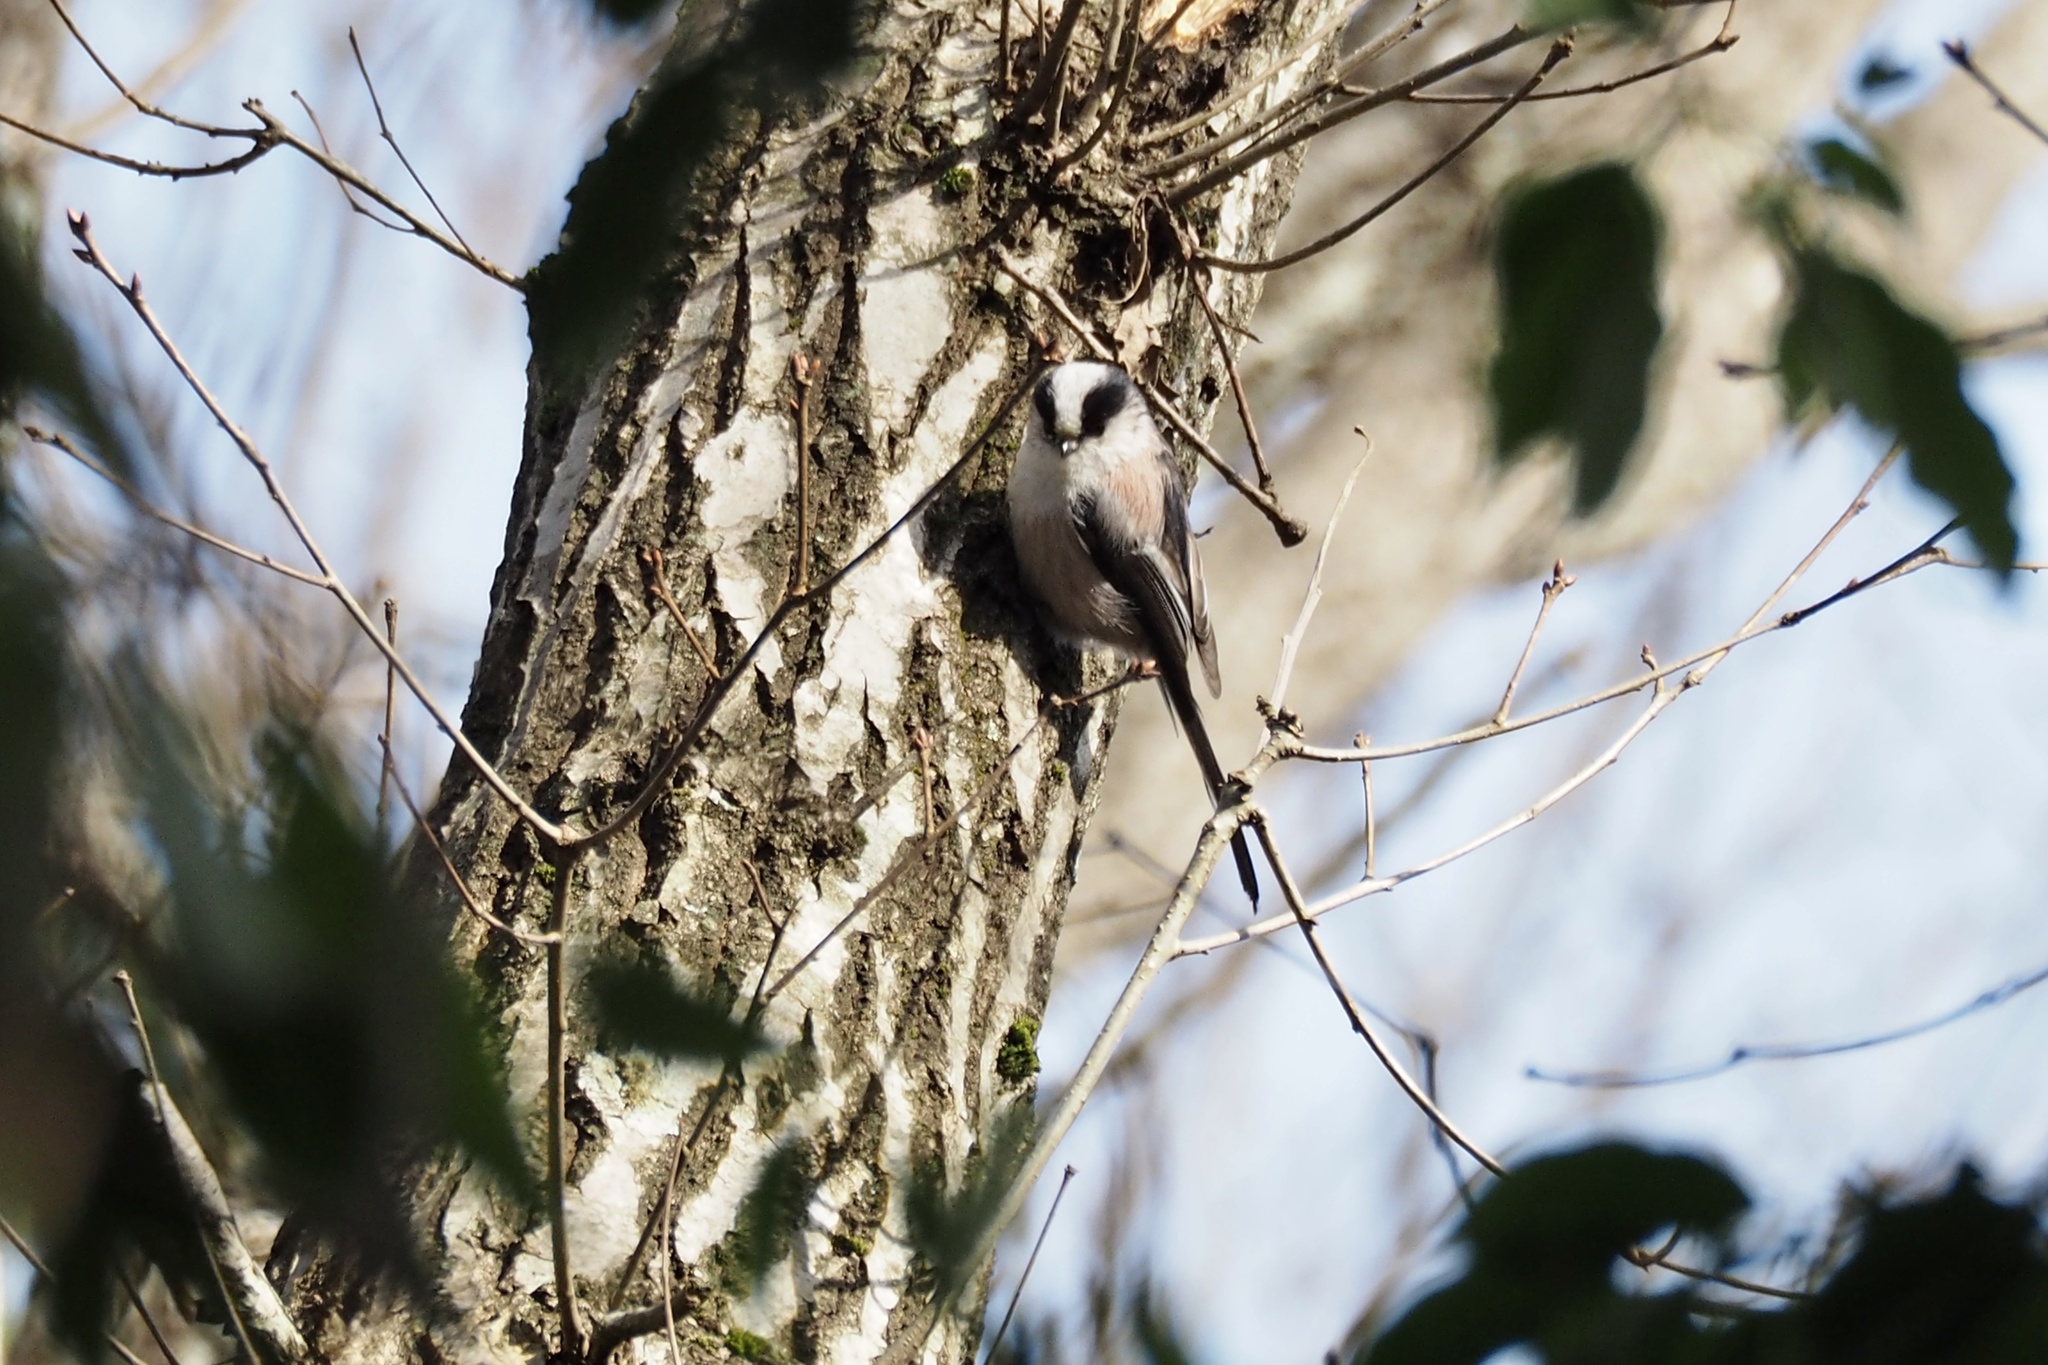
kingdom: Animalia
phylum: Chordata
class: Aves
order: Passeriformes
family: Aegithalidae
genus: Aegithalos
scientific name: Aegithalos caudatus
